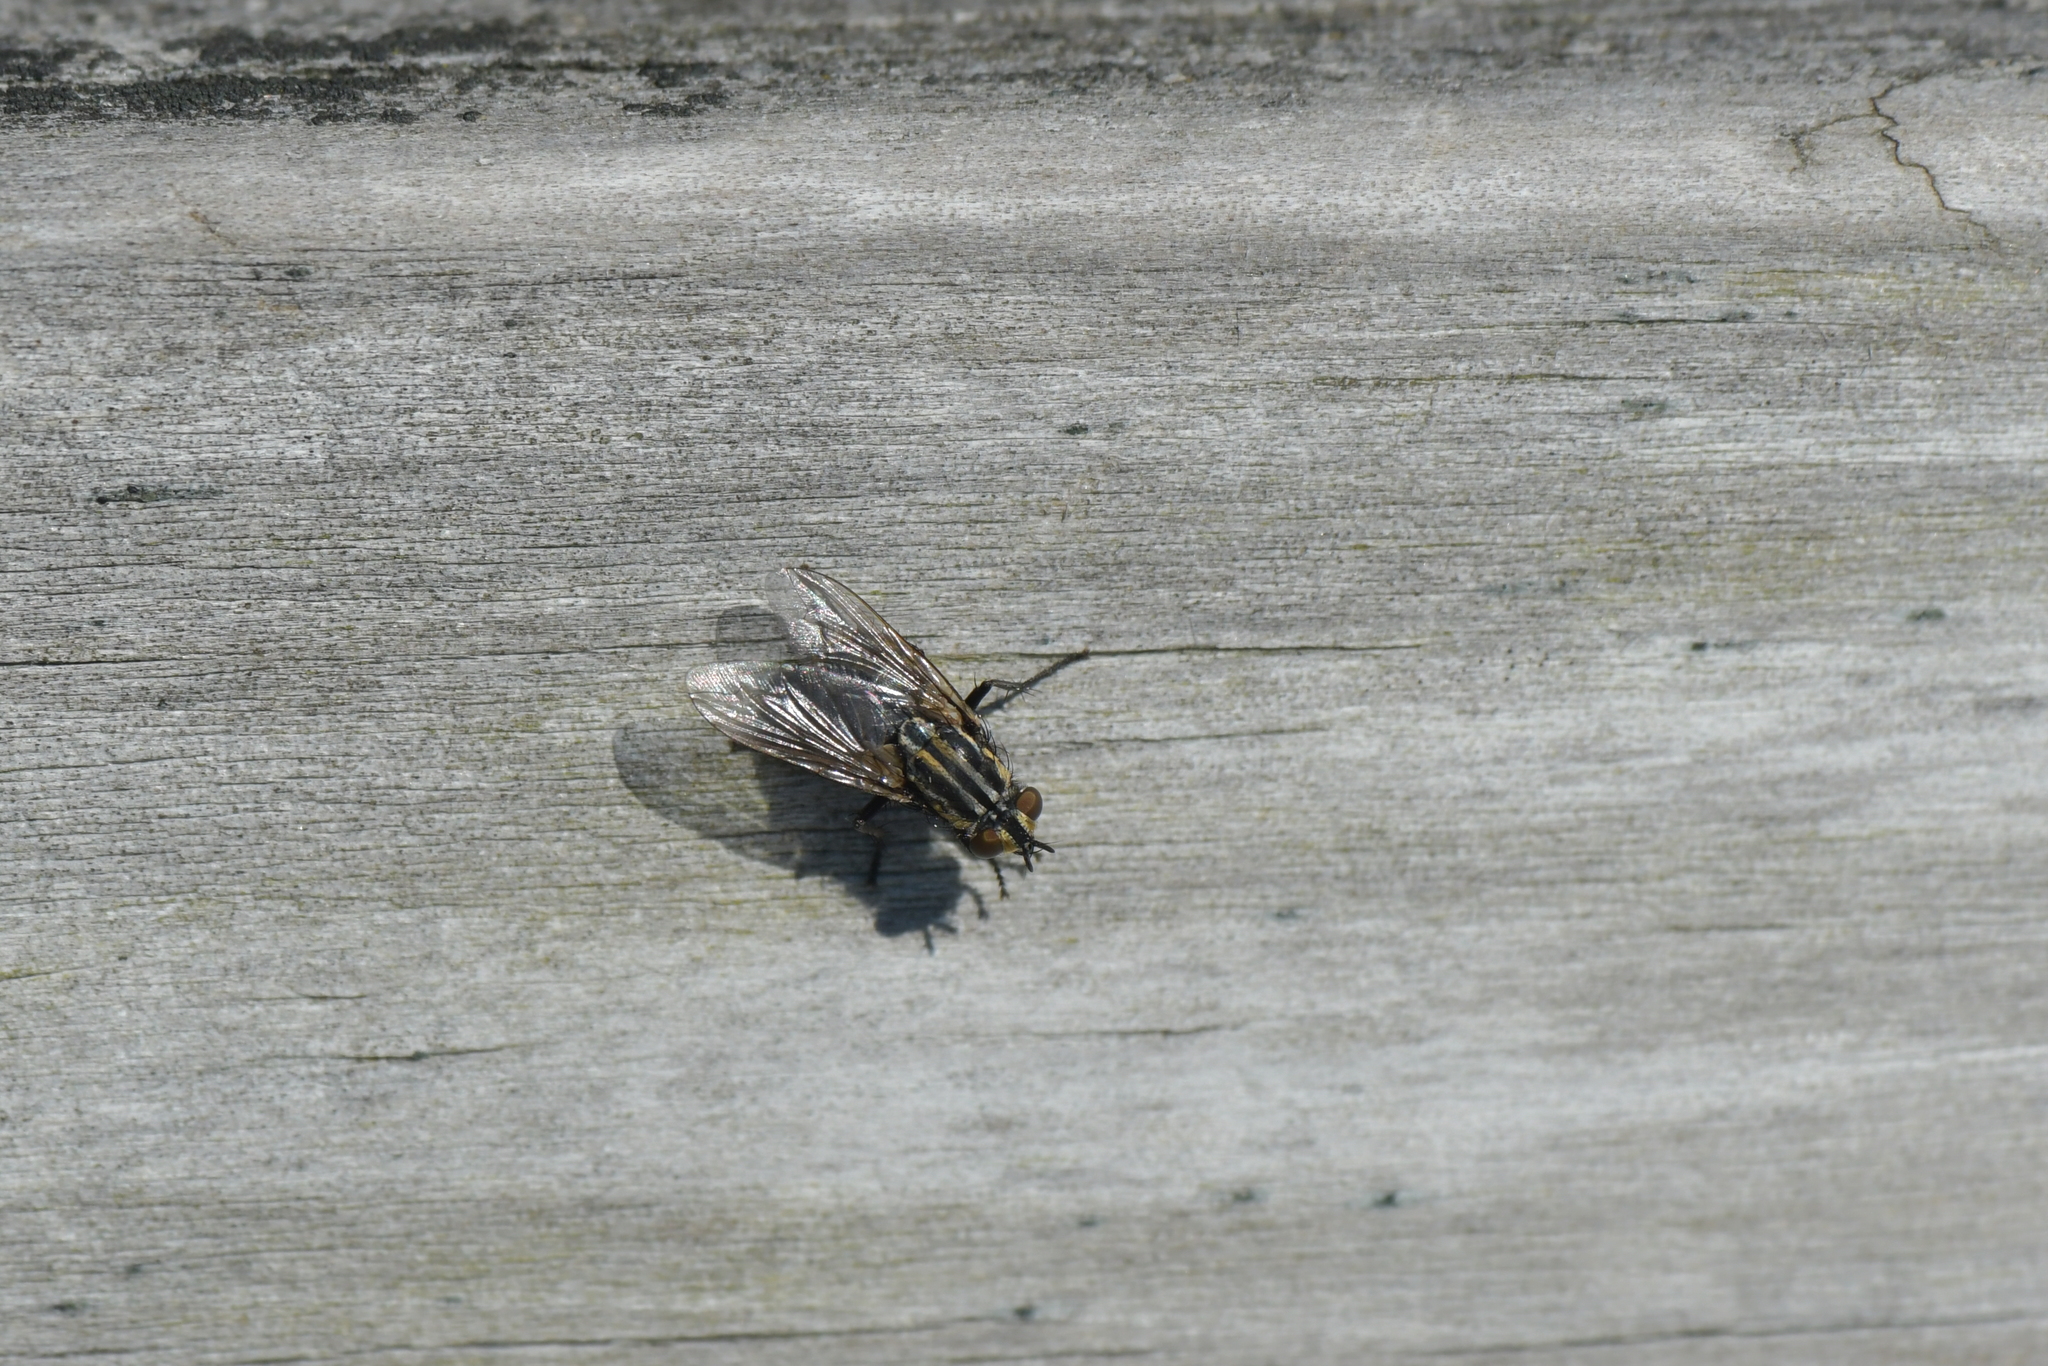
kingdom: Animalia
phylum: Arthropoda
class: Insecta
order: Diptera
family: Sarcophagidae
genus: Oxysarcodexia
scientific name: Oxysarcodexia varia
